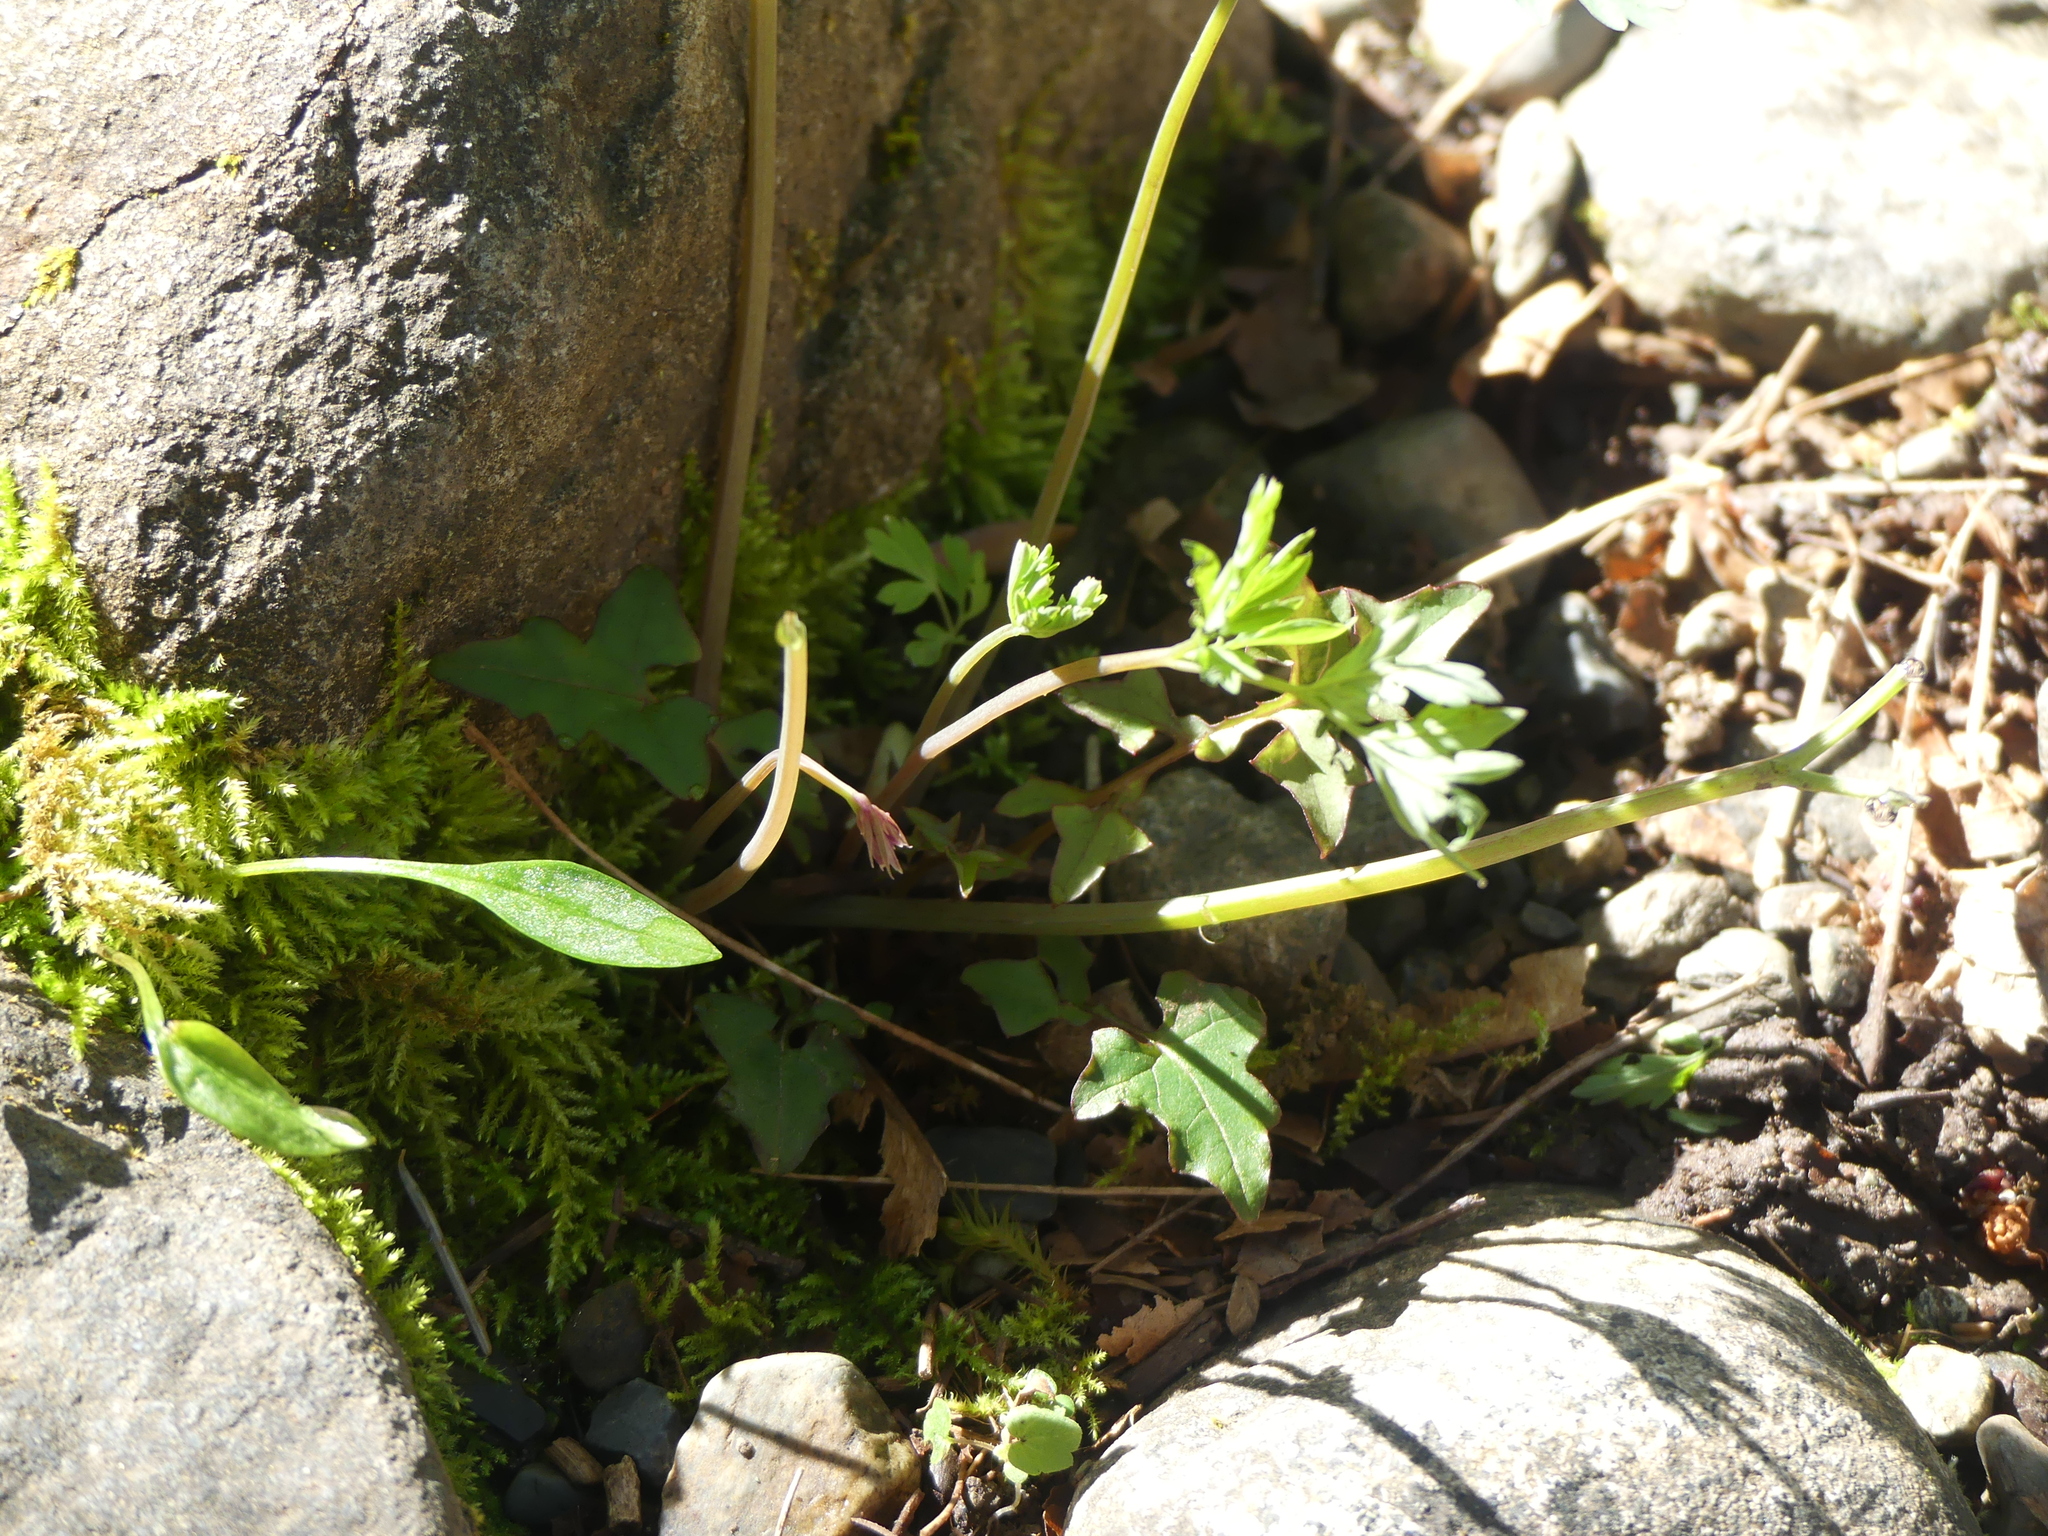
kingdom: Plantae
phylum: Tracheophyta
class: Magnoliopsida
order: Ranunculales
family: Papaveraceae
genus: Dicentra
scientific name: Dicentra formosa
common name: Bleeding-heart
